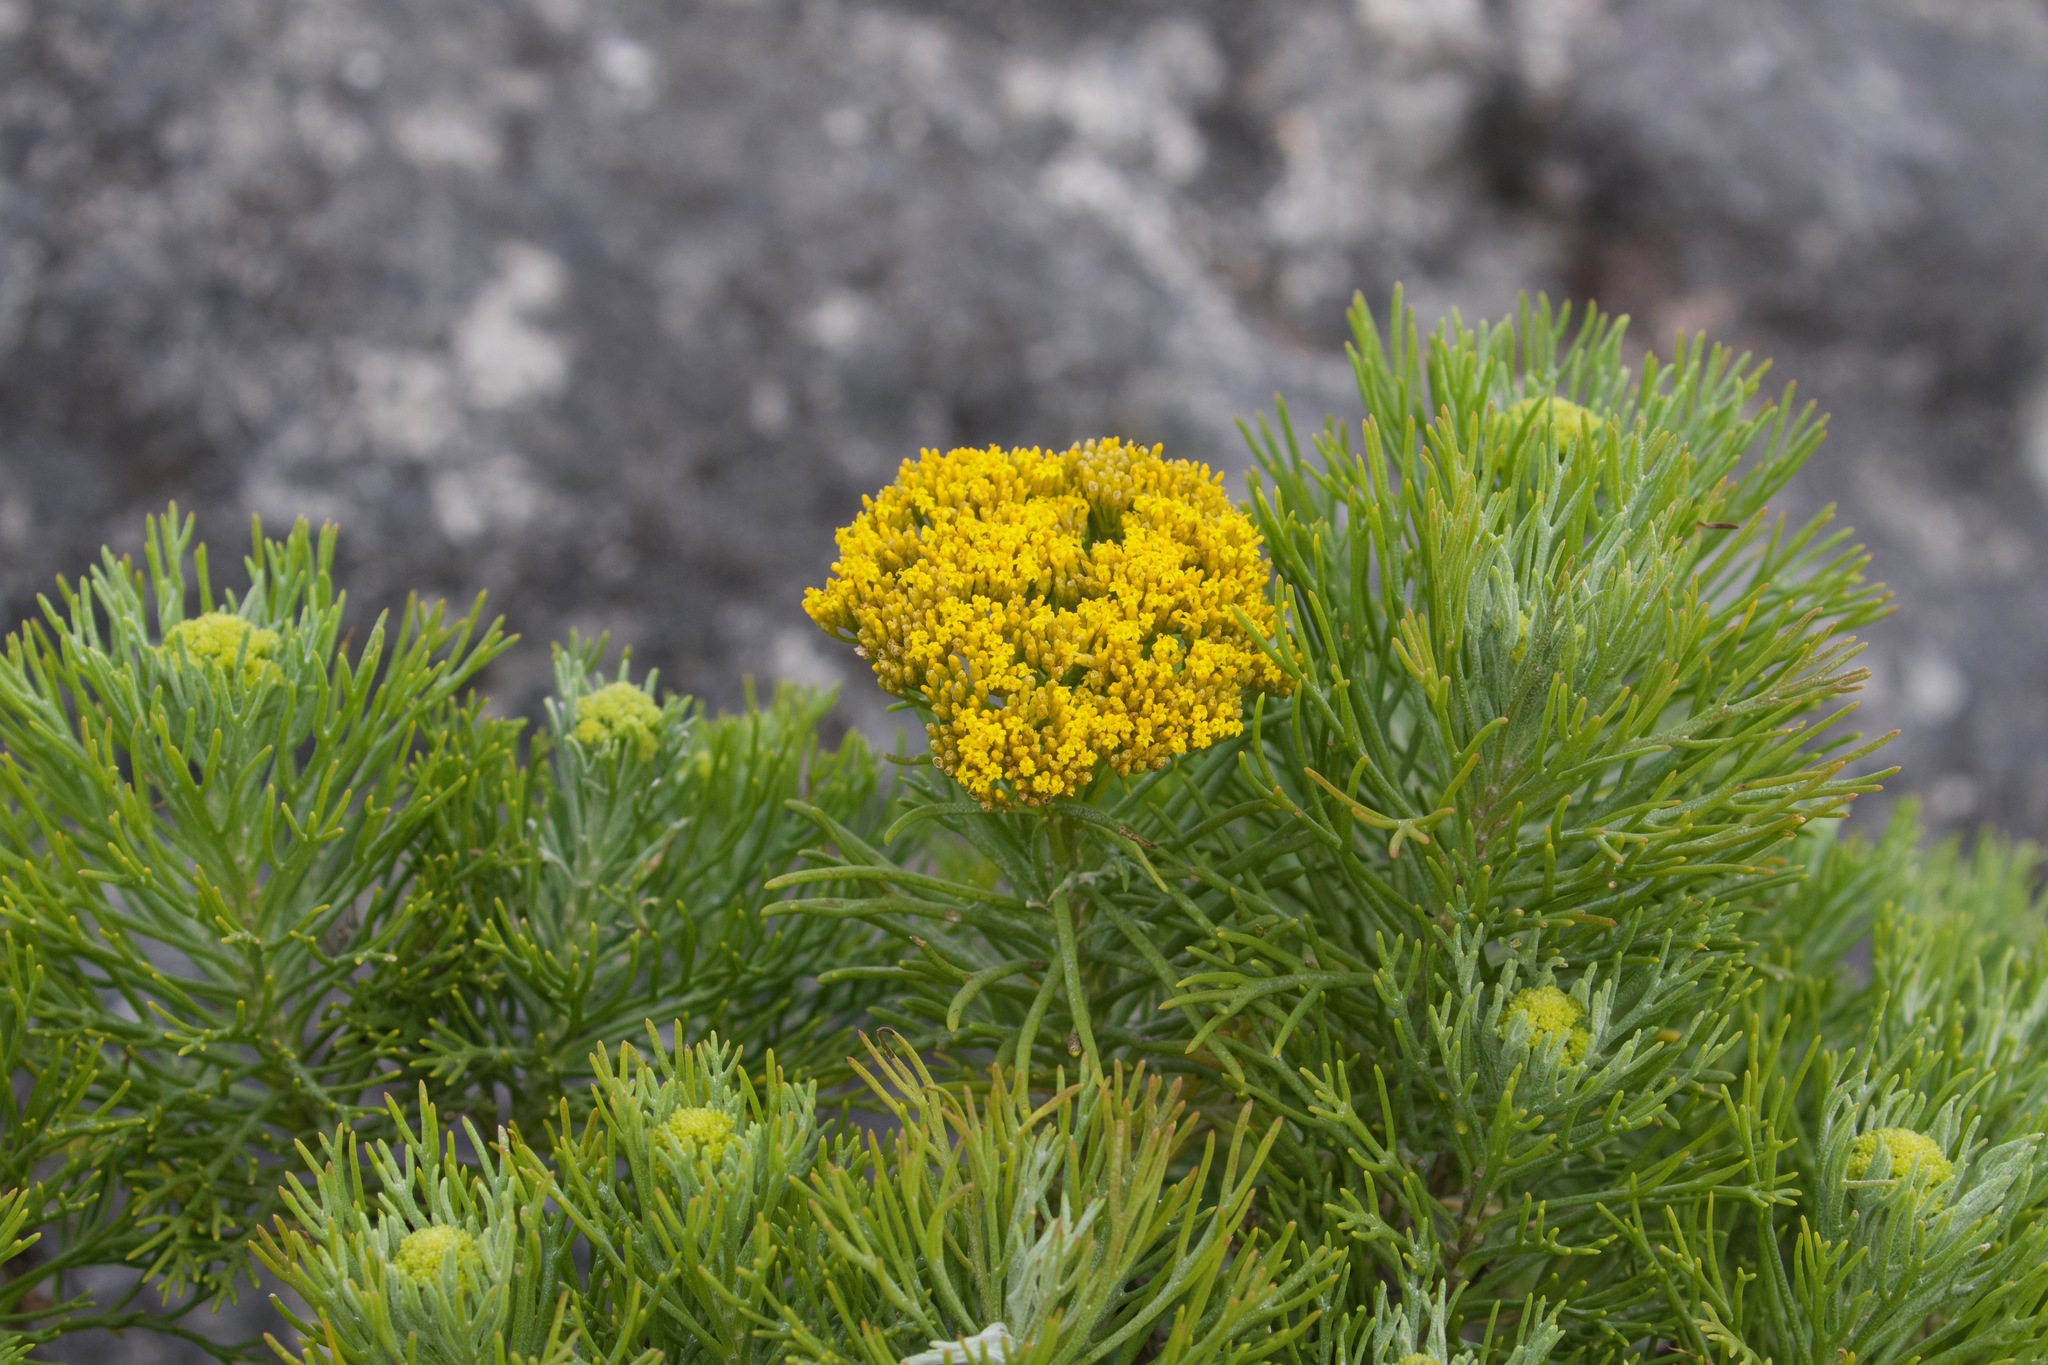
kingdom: Plantae
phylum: Tracheophyta
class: Magnoliopsida
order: Asterales
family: Asteraceae
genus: Hymenolepis
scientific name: Hymenolepis crithmifolia
